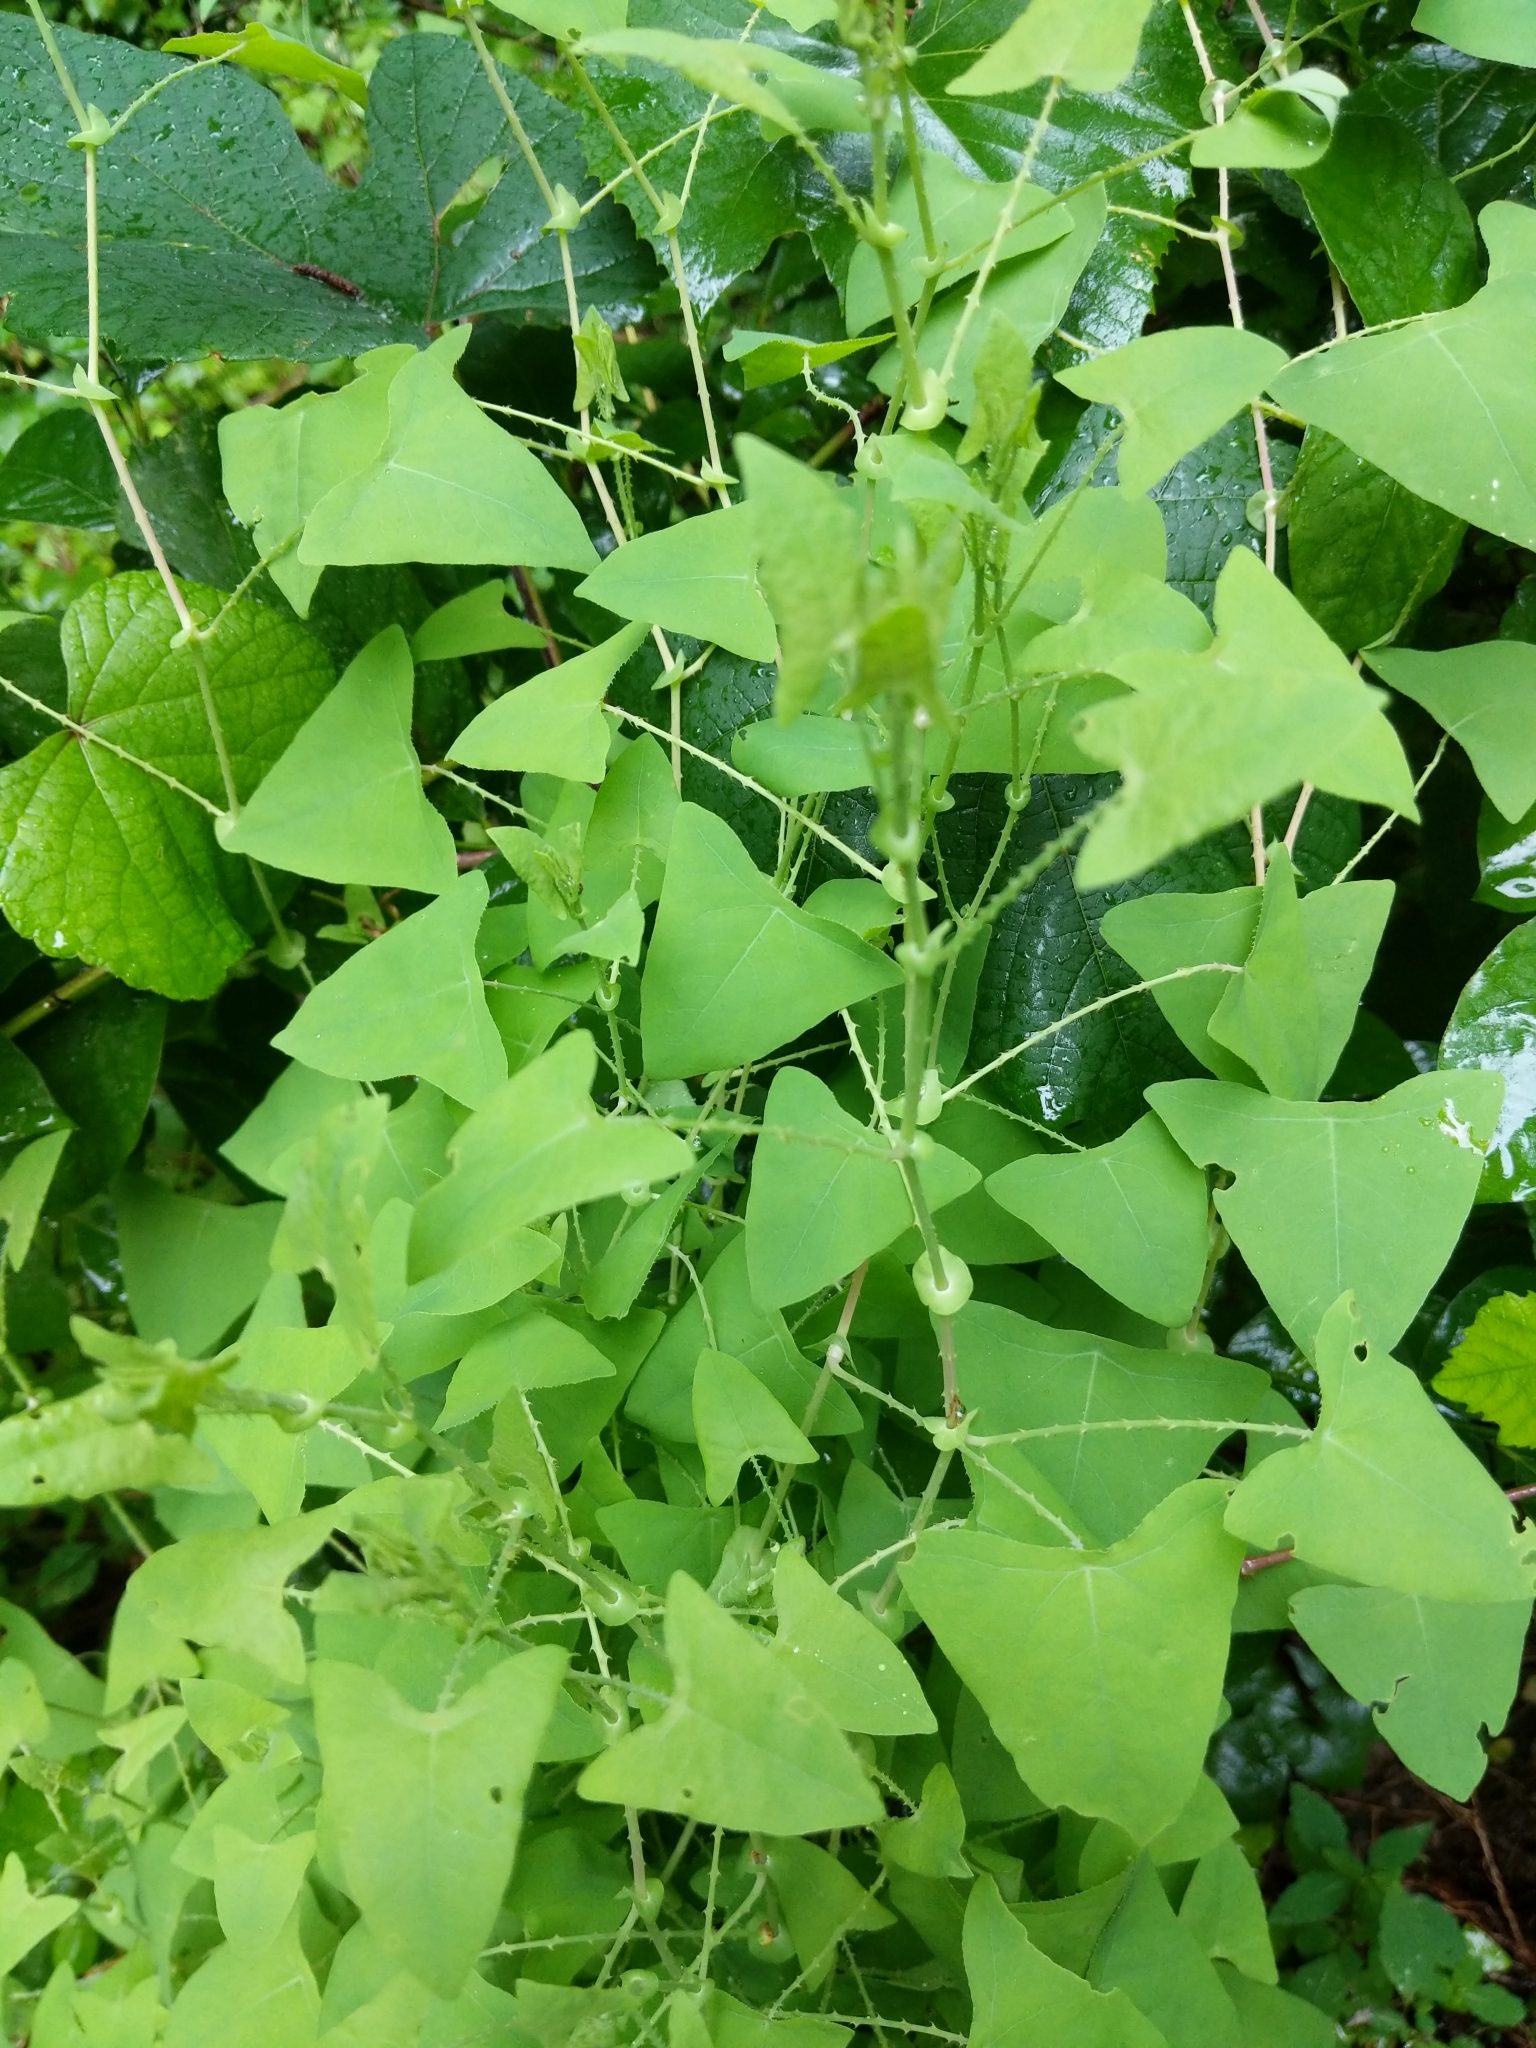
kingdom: Plantae
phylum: Tracheophyta
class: Magnoliopsida
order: Caryophyllales
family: Polygonaceae
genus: Persicaria
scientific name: Persicaria perfoliata
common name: Asiatic tearthumb
